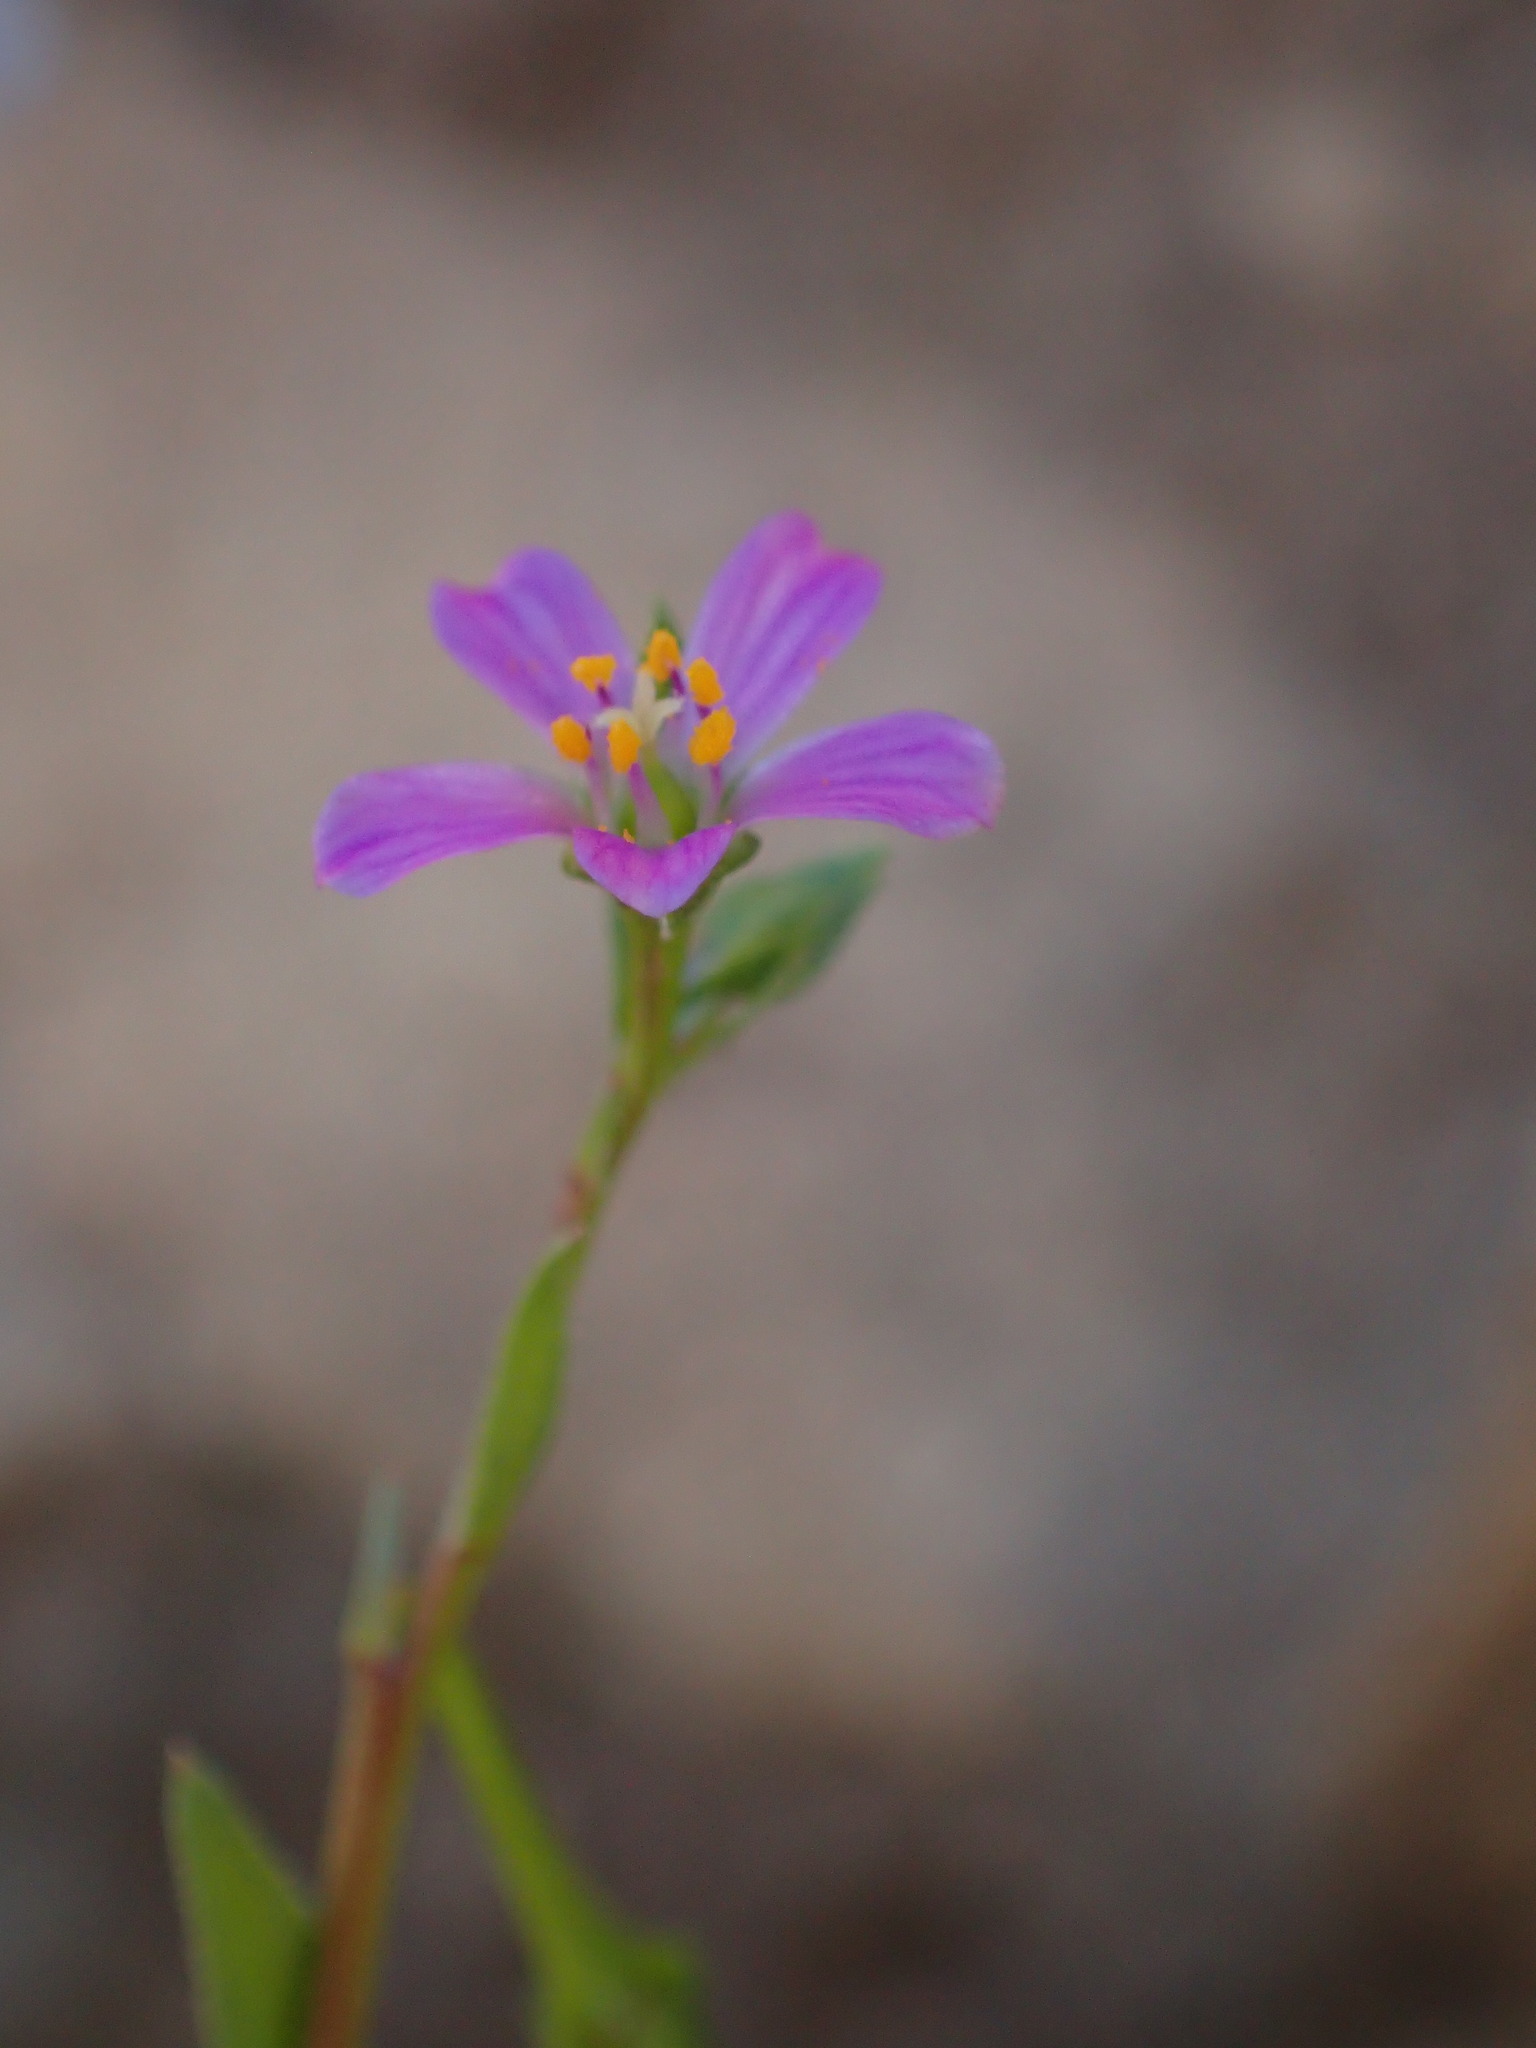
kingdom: Plantae
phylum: Tracheophyta
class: Magnoliopsida
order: Caryophyllales
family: Montiaceae
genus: Calandrinia
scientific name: Calandrinia breweri
